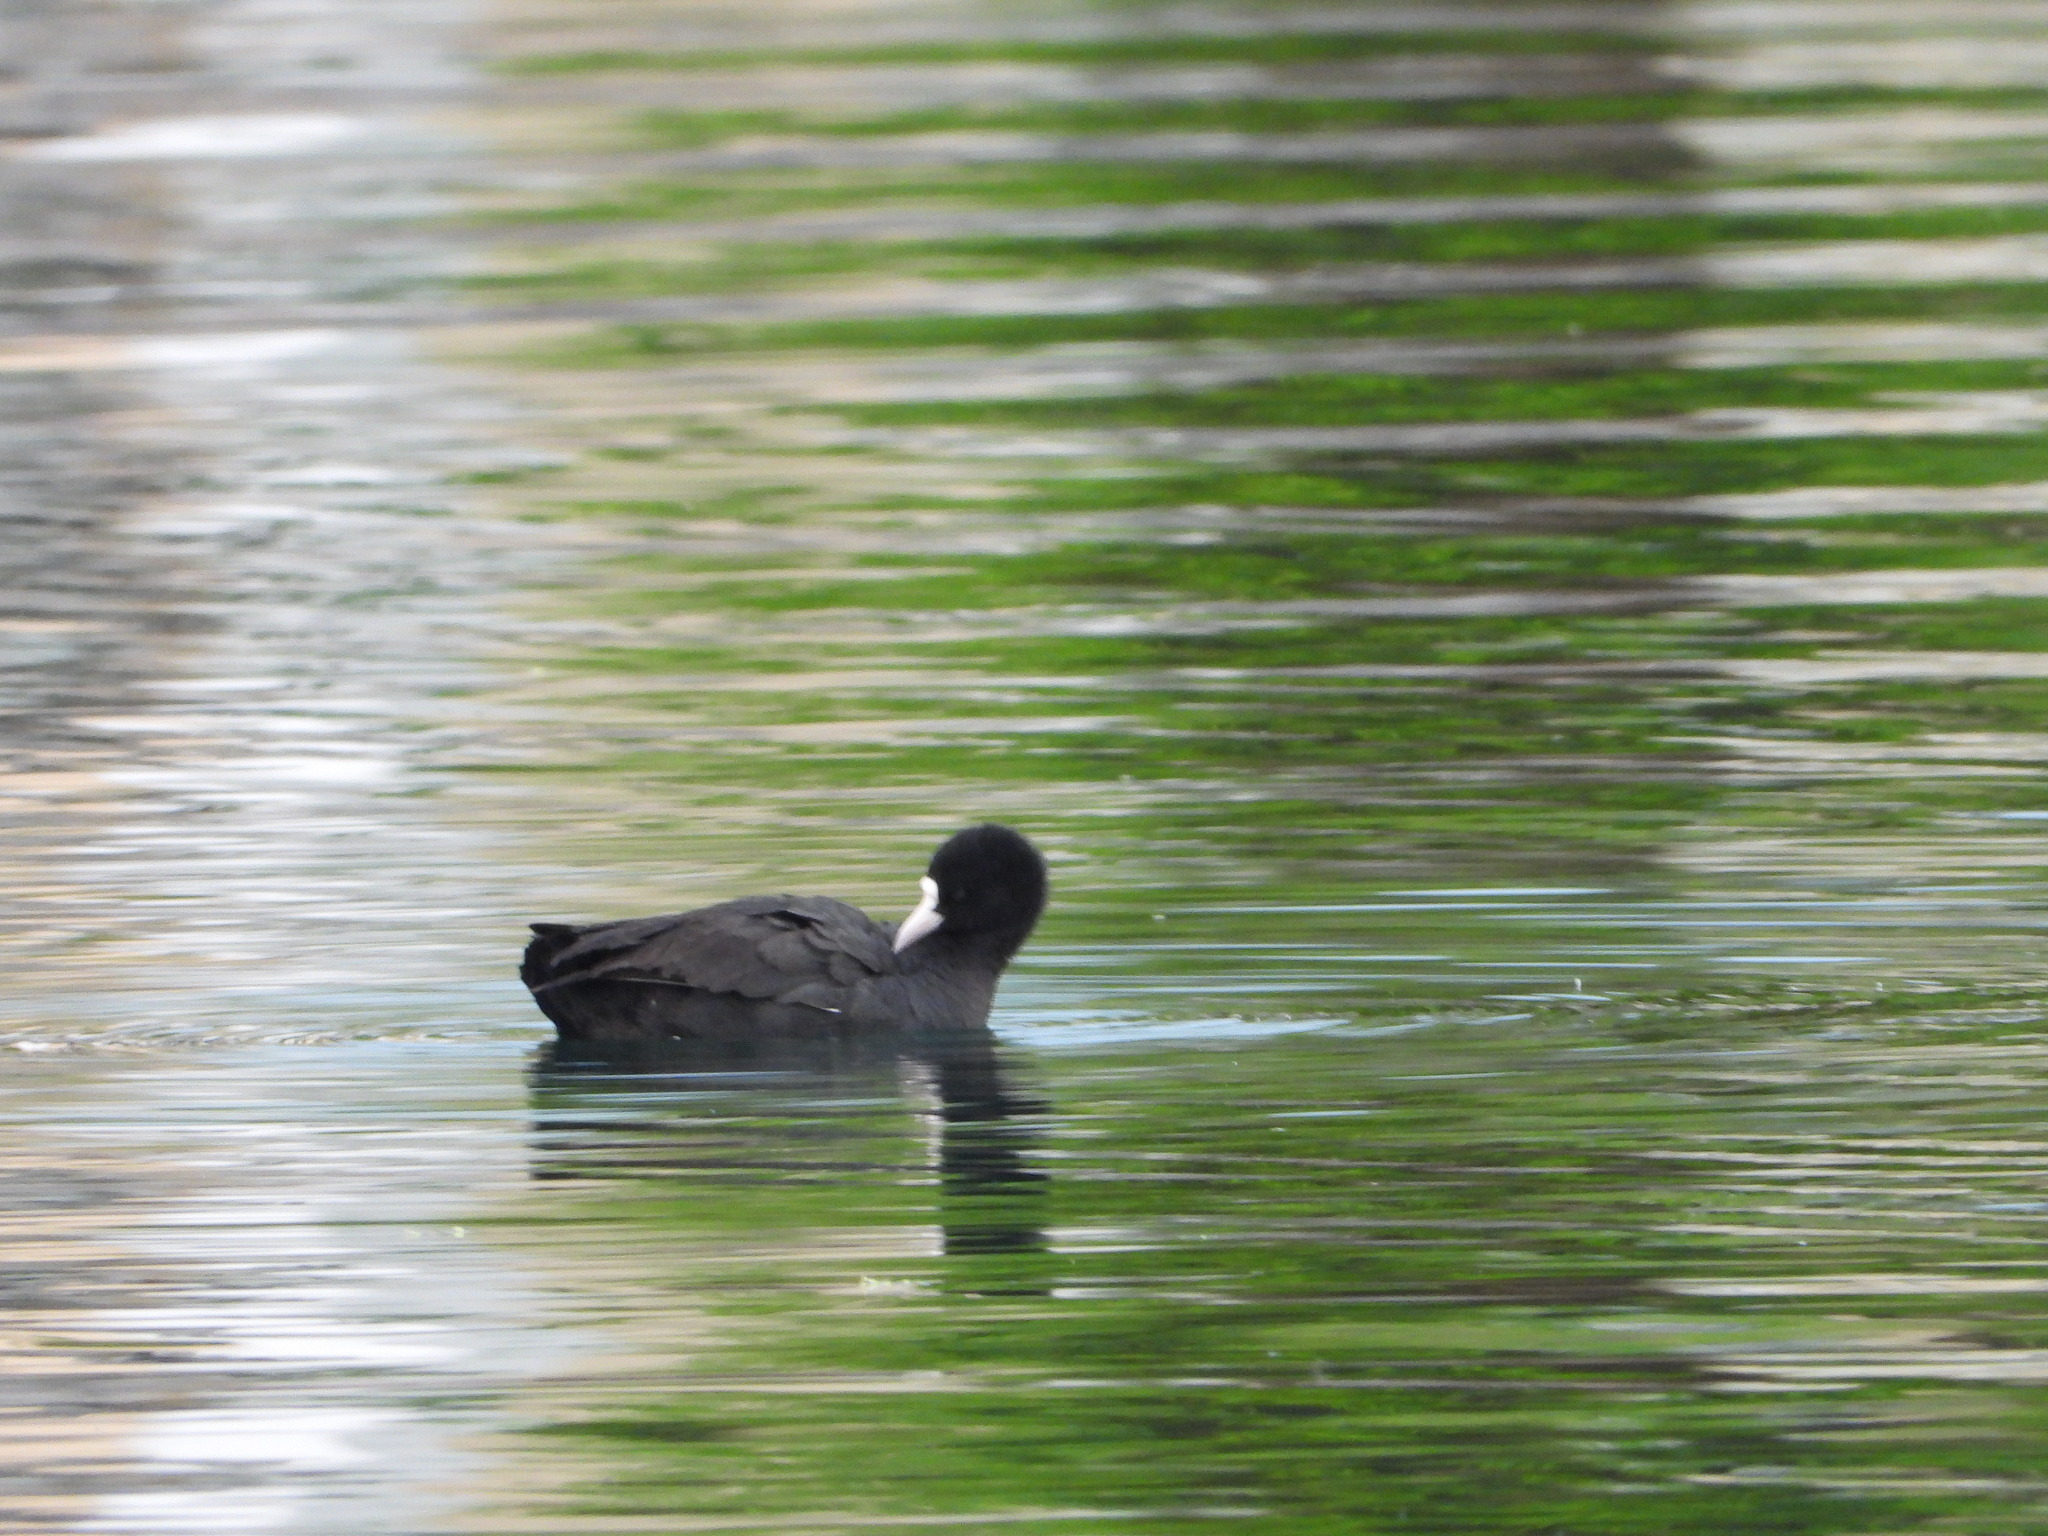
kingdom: Animalia
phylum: Chordata
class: Aves
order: Gruiformes
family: Rallidae
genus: Fulica
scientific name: Fulica atra
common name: Eurasian coot
